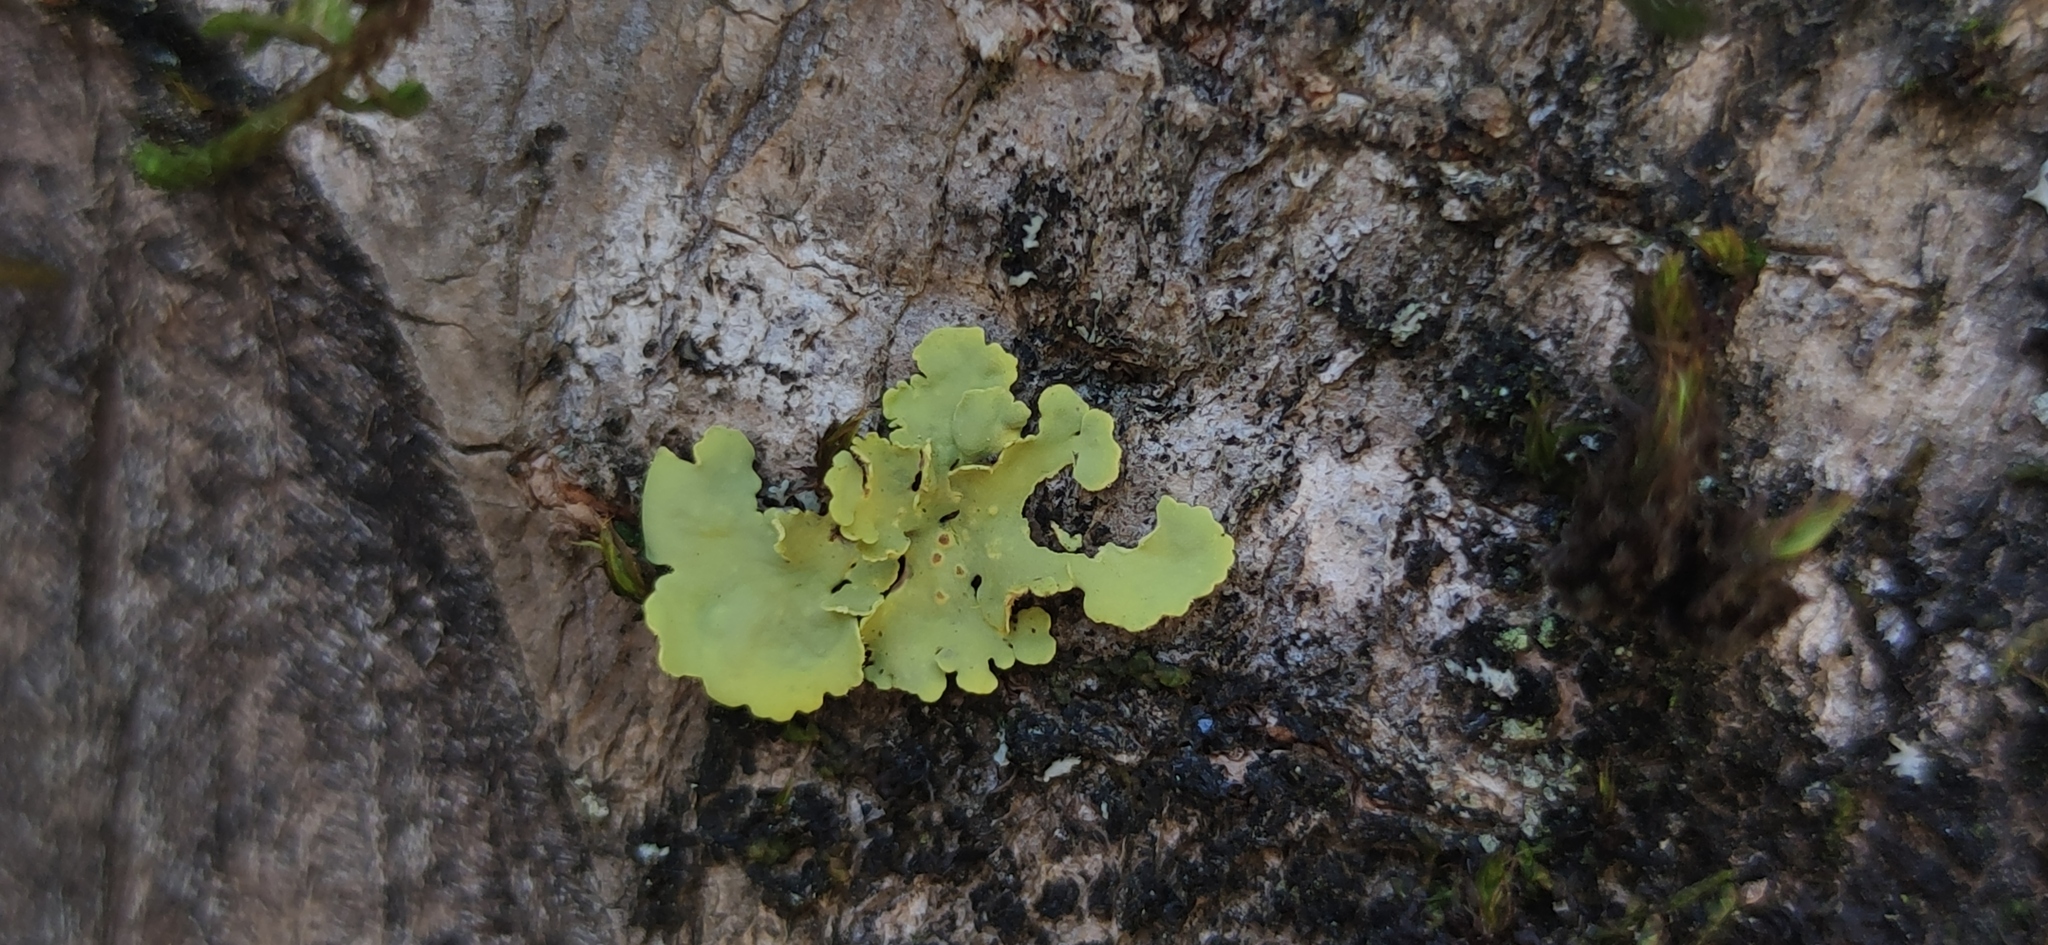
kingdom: Fungi
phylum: Ascomycota
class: Lecanoromycetes
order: Peltigerales
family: Lobariaceae
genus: Pseudocyphellaria
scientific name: Pseudocyphellaria aurata
